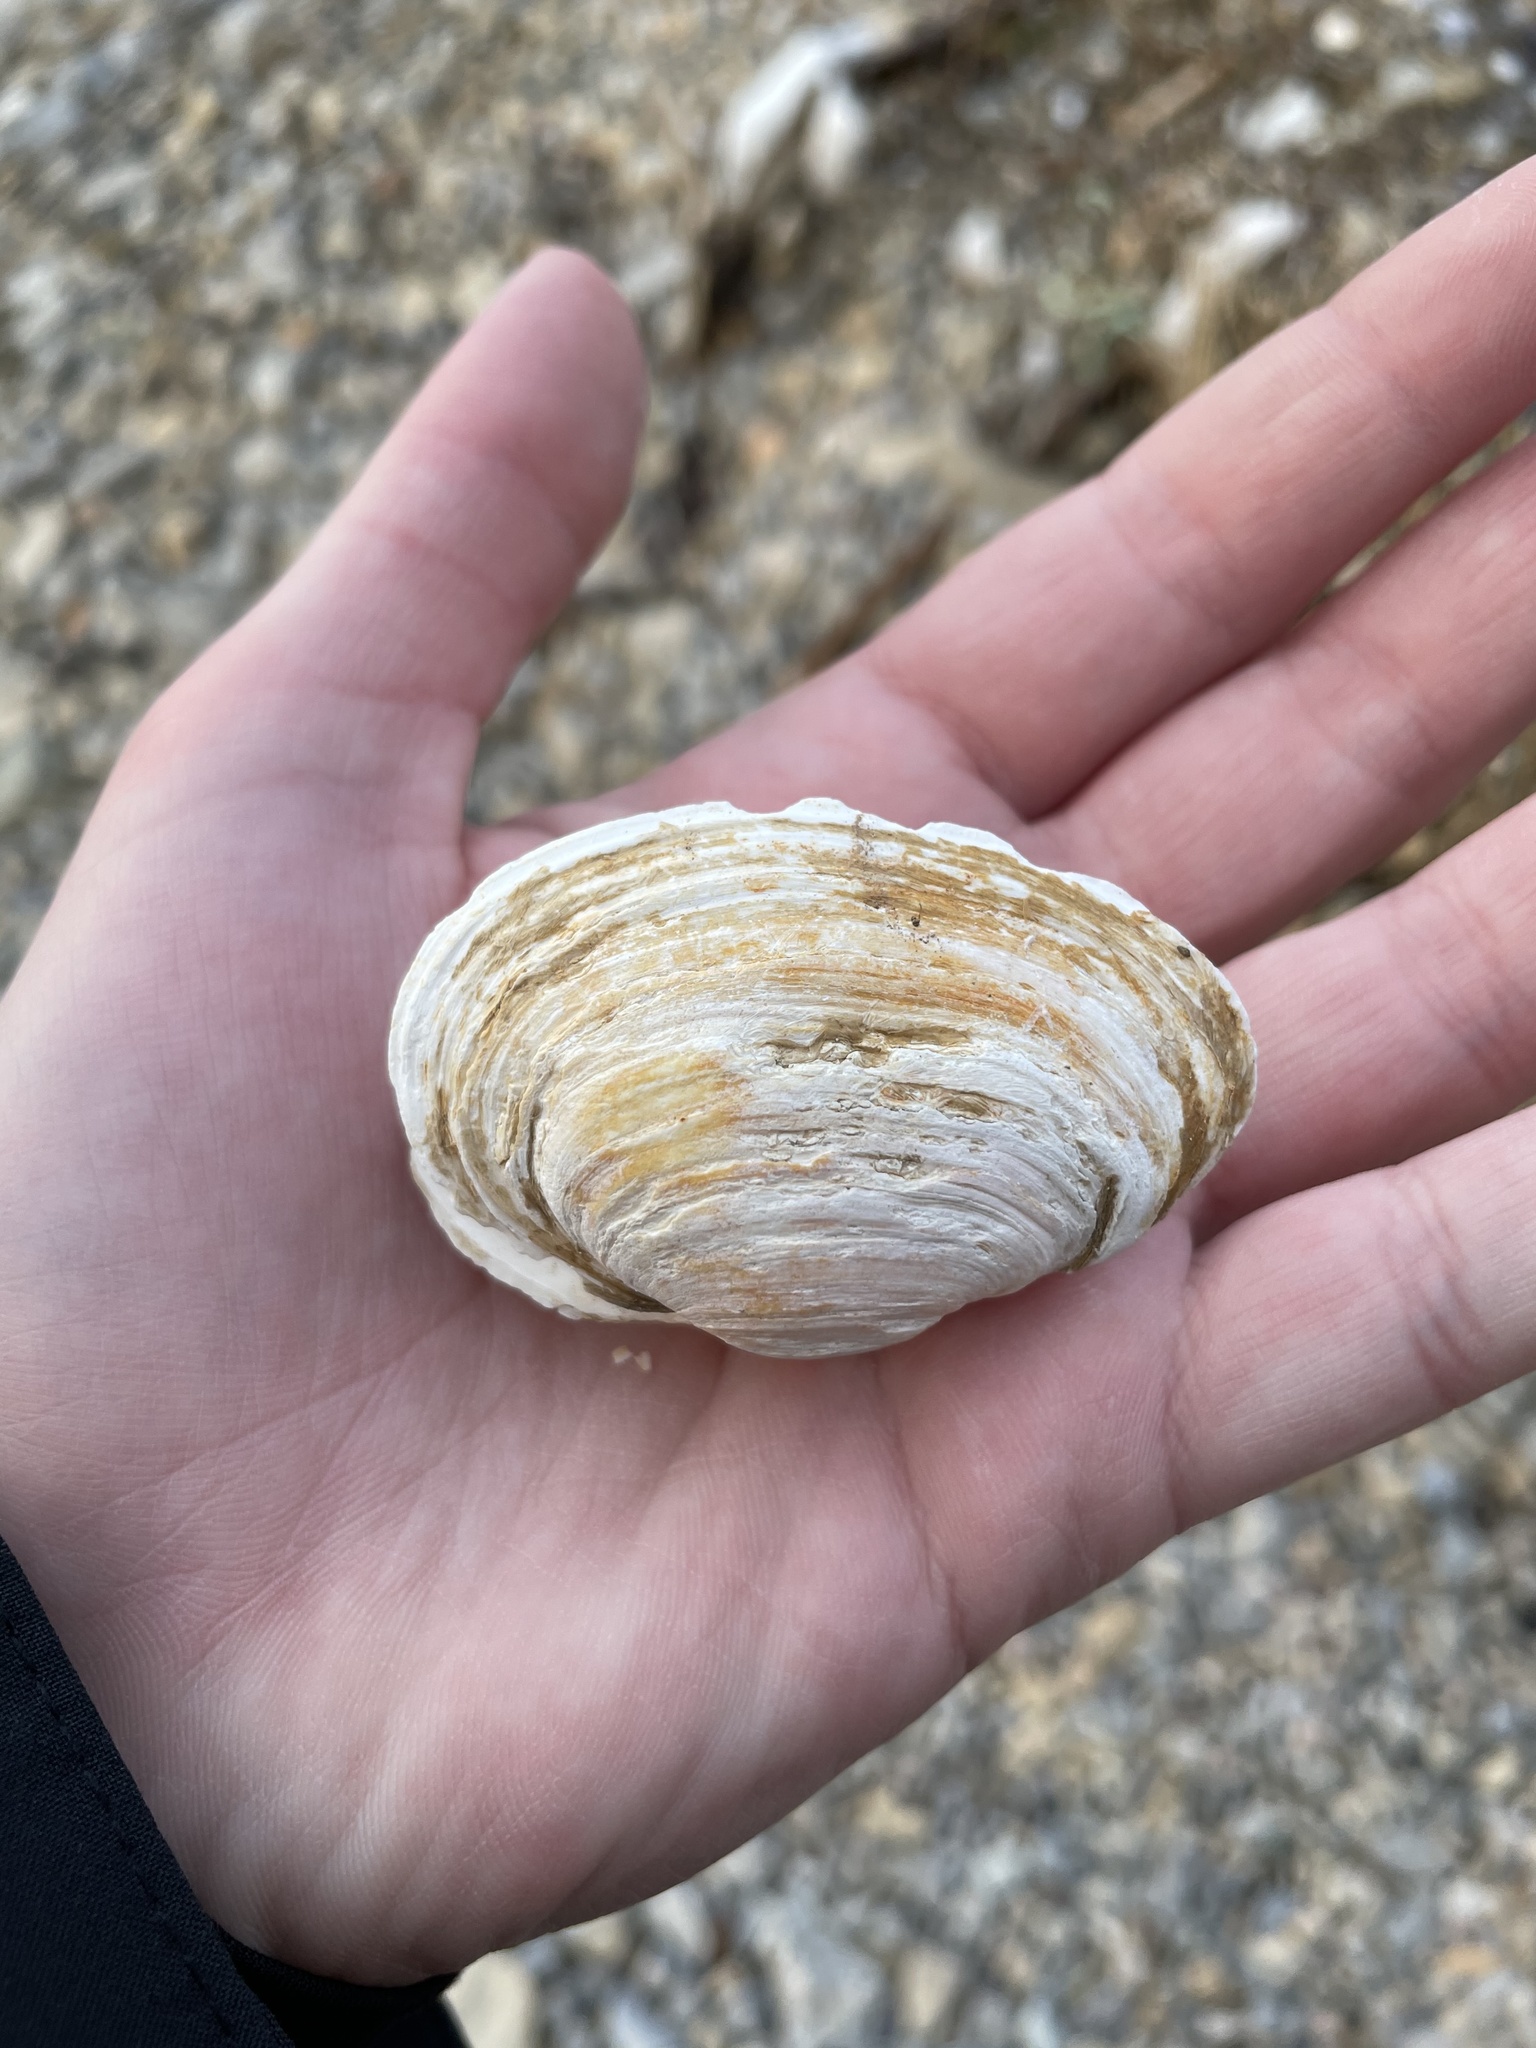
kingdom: Animalia
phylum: Mollusca
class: Bivalvia
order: Myida
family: Myidae
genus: Mya
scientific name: Mya arenaria
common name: Soft-shelled clam
